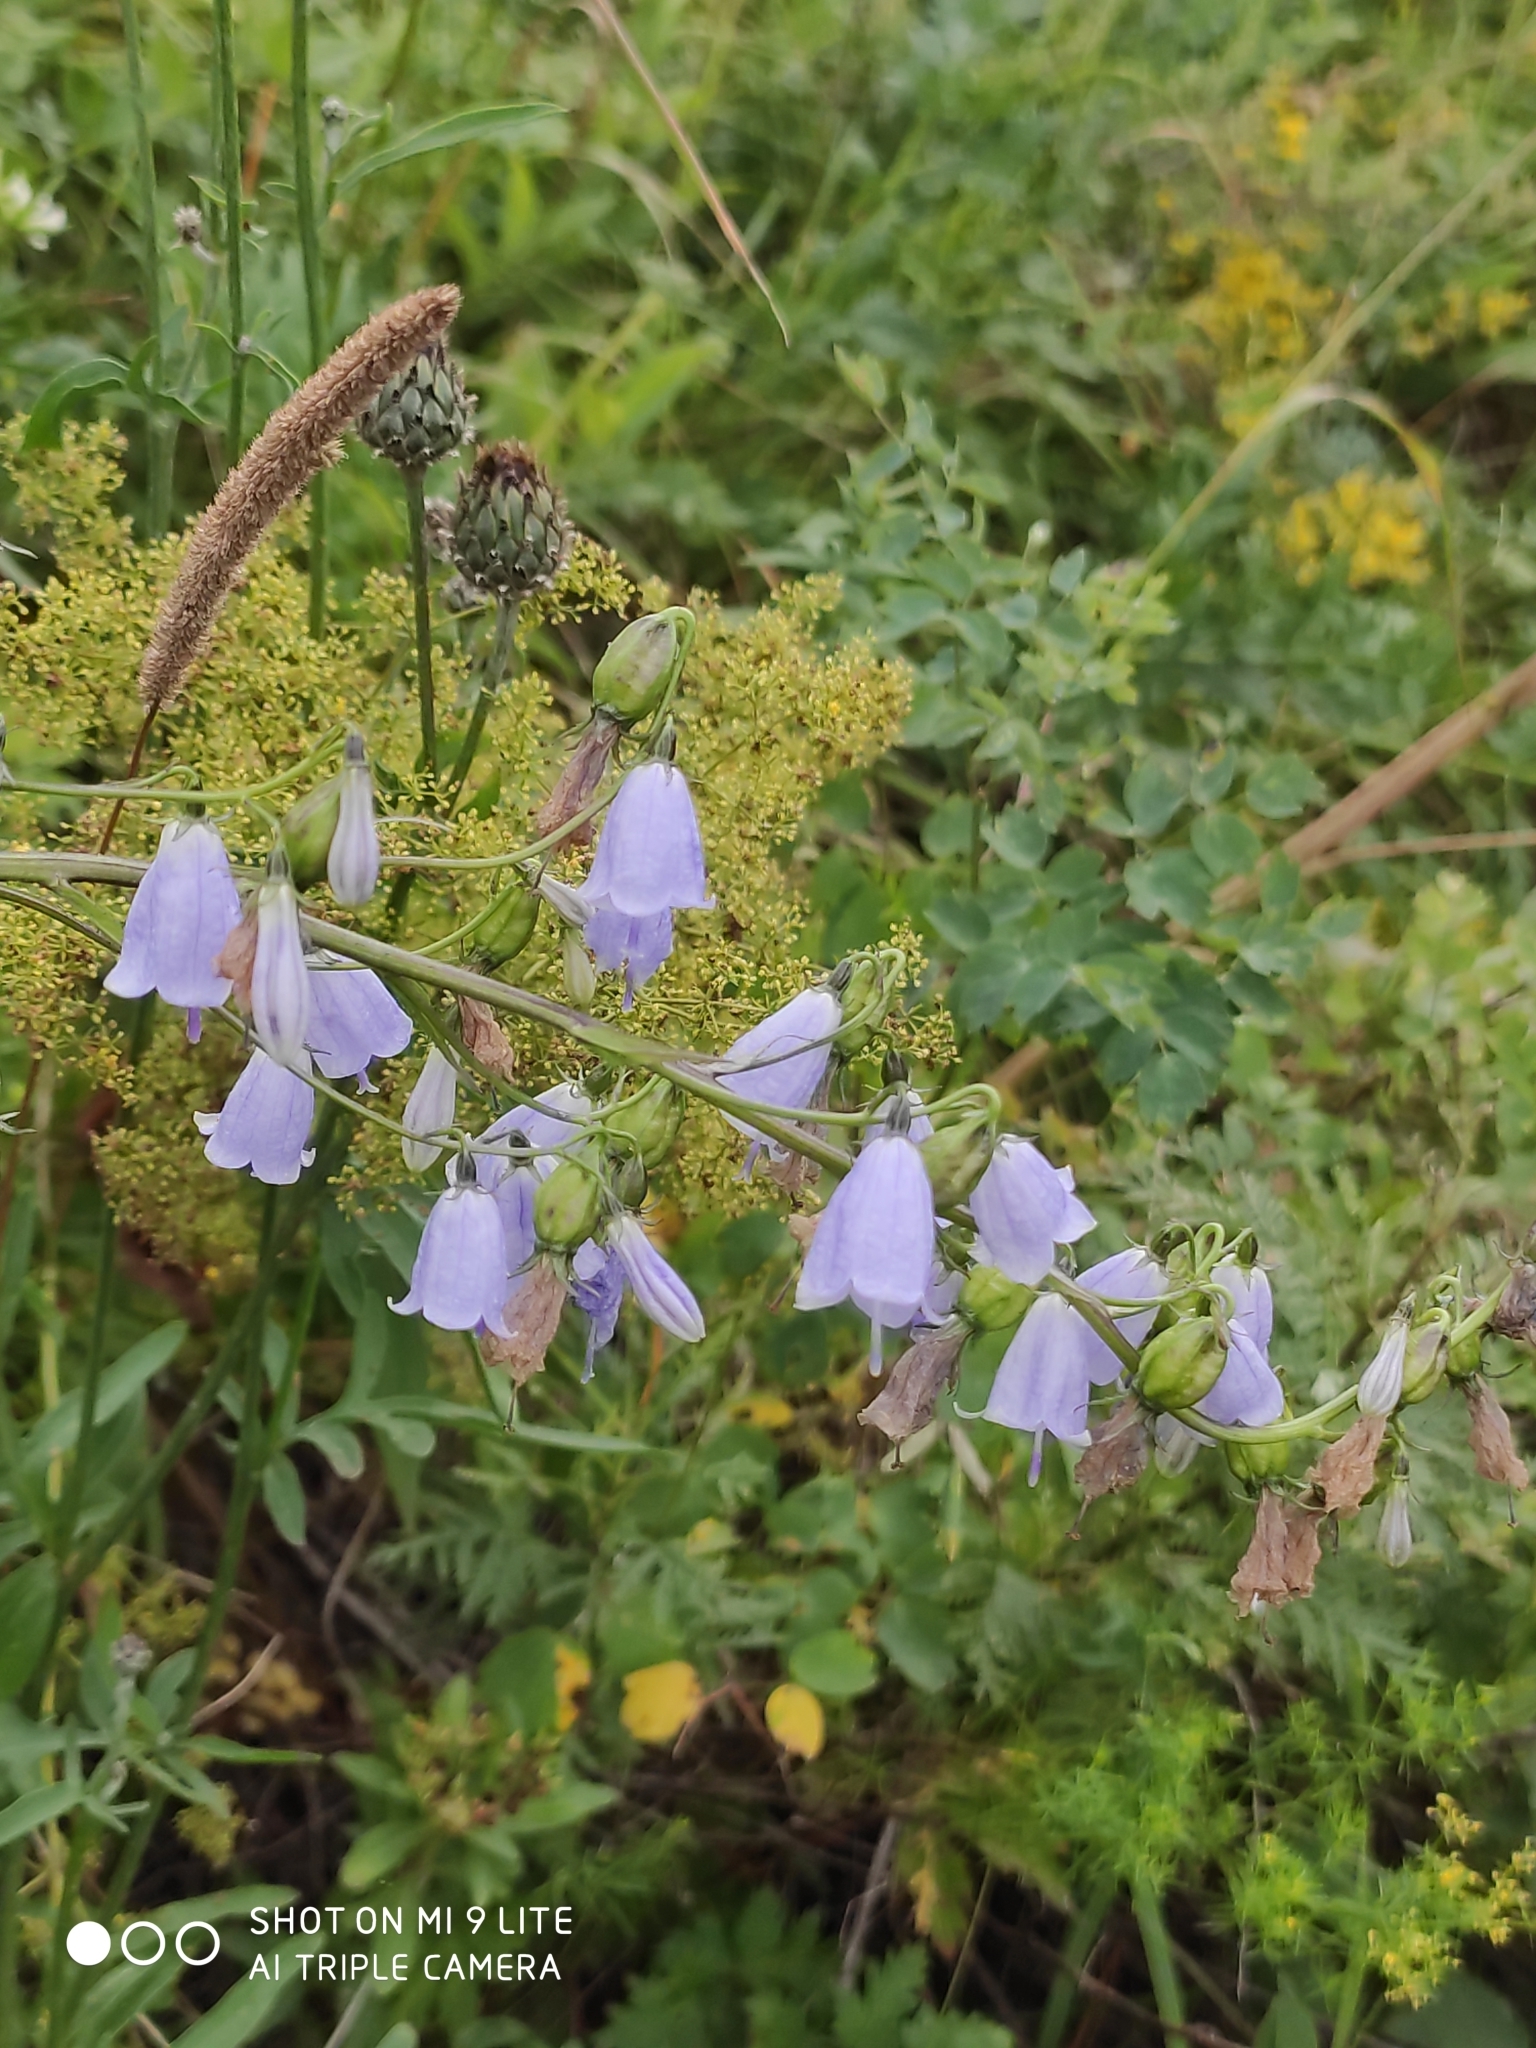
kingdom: Plantae
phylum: Tracheophyta
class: Magnoliopsida
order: Asterales
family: Campanulaceae
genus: Adenophora
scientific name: Adenophora liliifolia
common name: Lilyleaf ladybells
